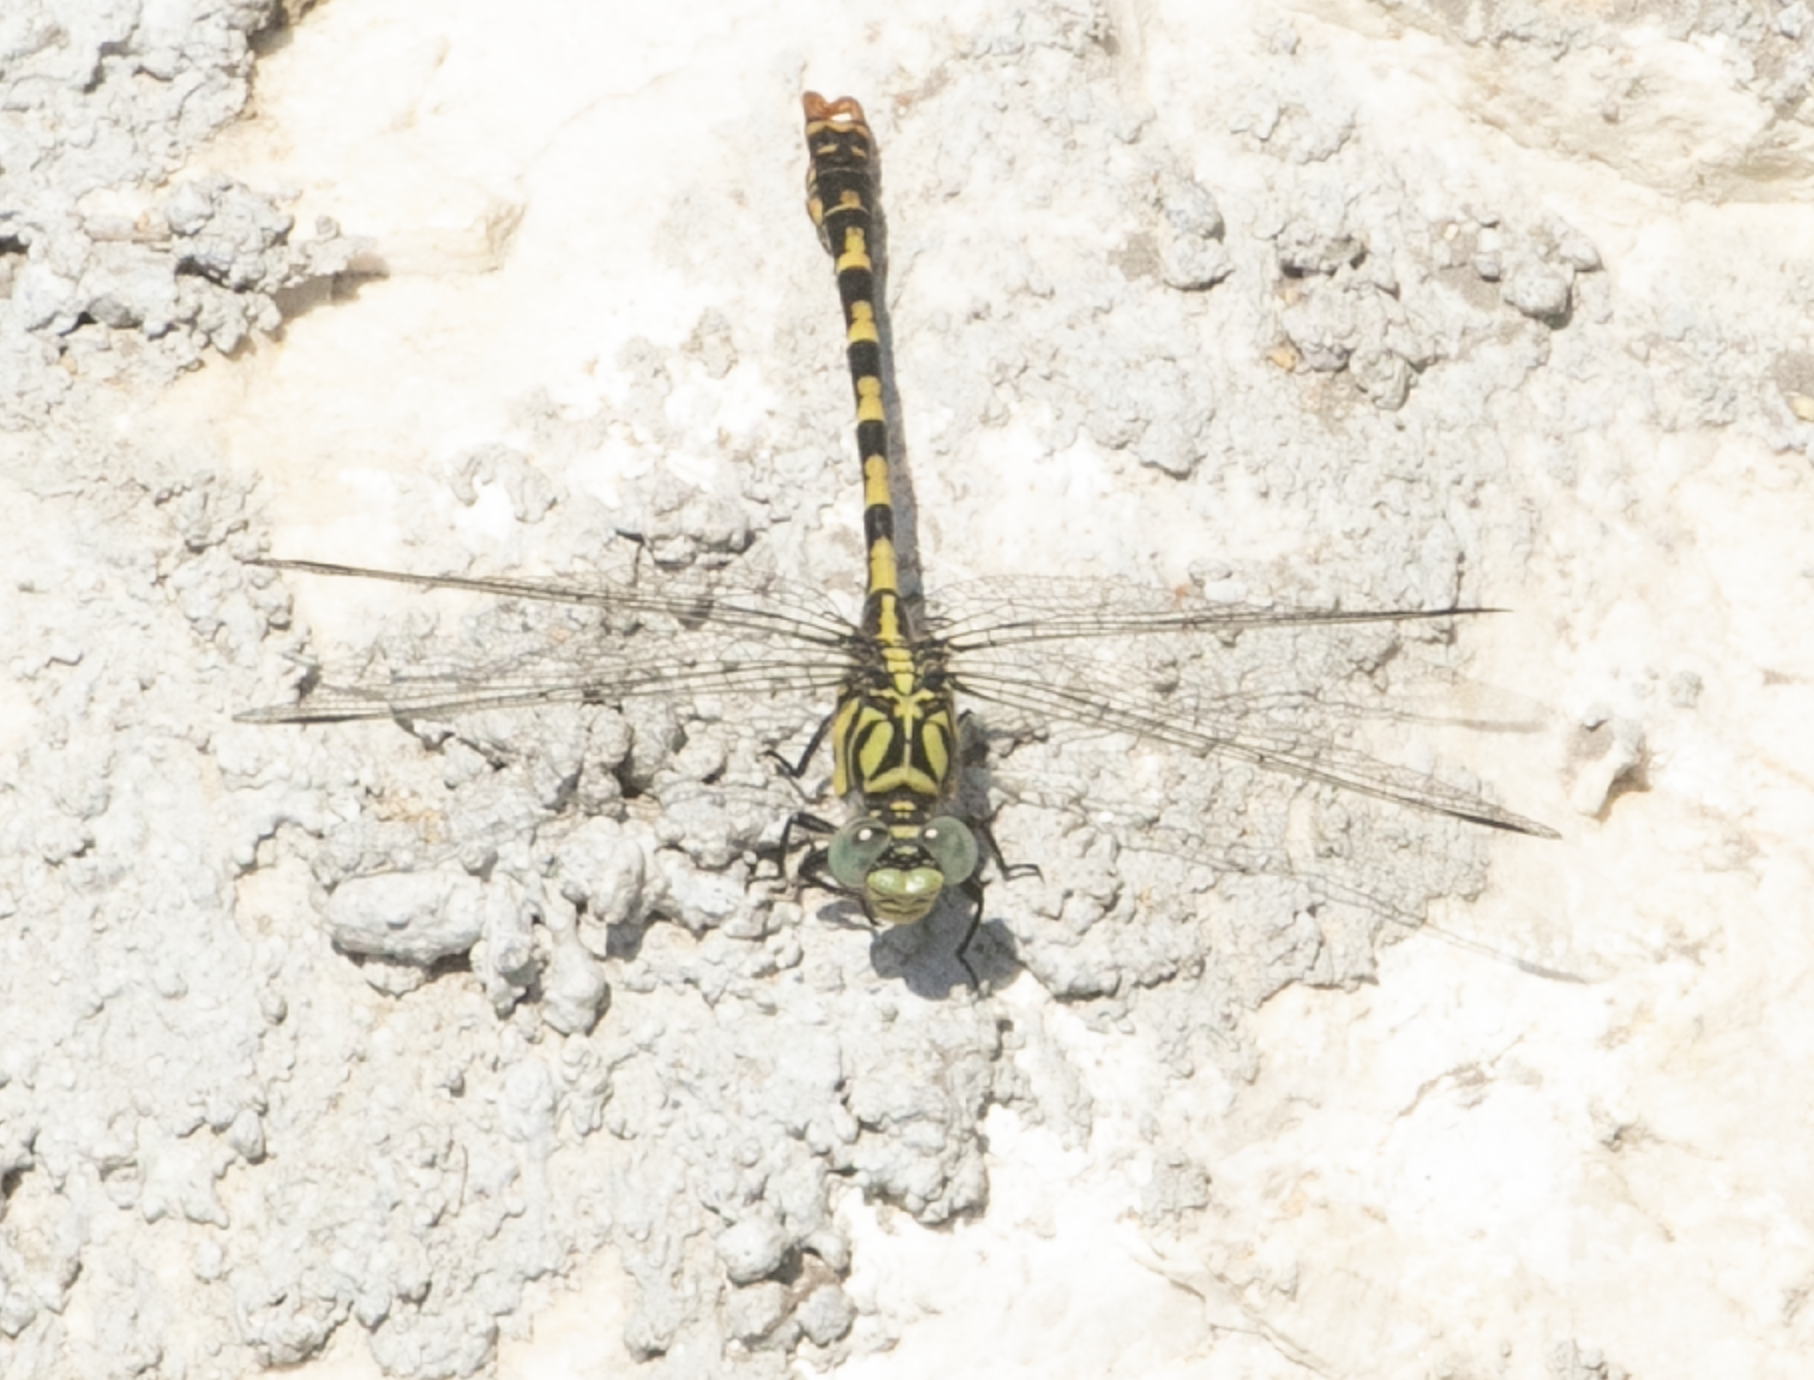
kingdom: Animalia
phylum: Arthropoda
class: Insecta
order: Odonata
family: Gomphidae
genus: Onychogomphus
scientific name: Onychogomphus forcipatus
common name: Small pincertail
